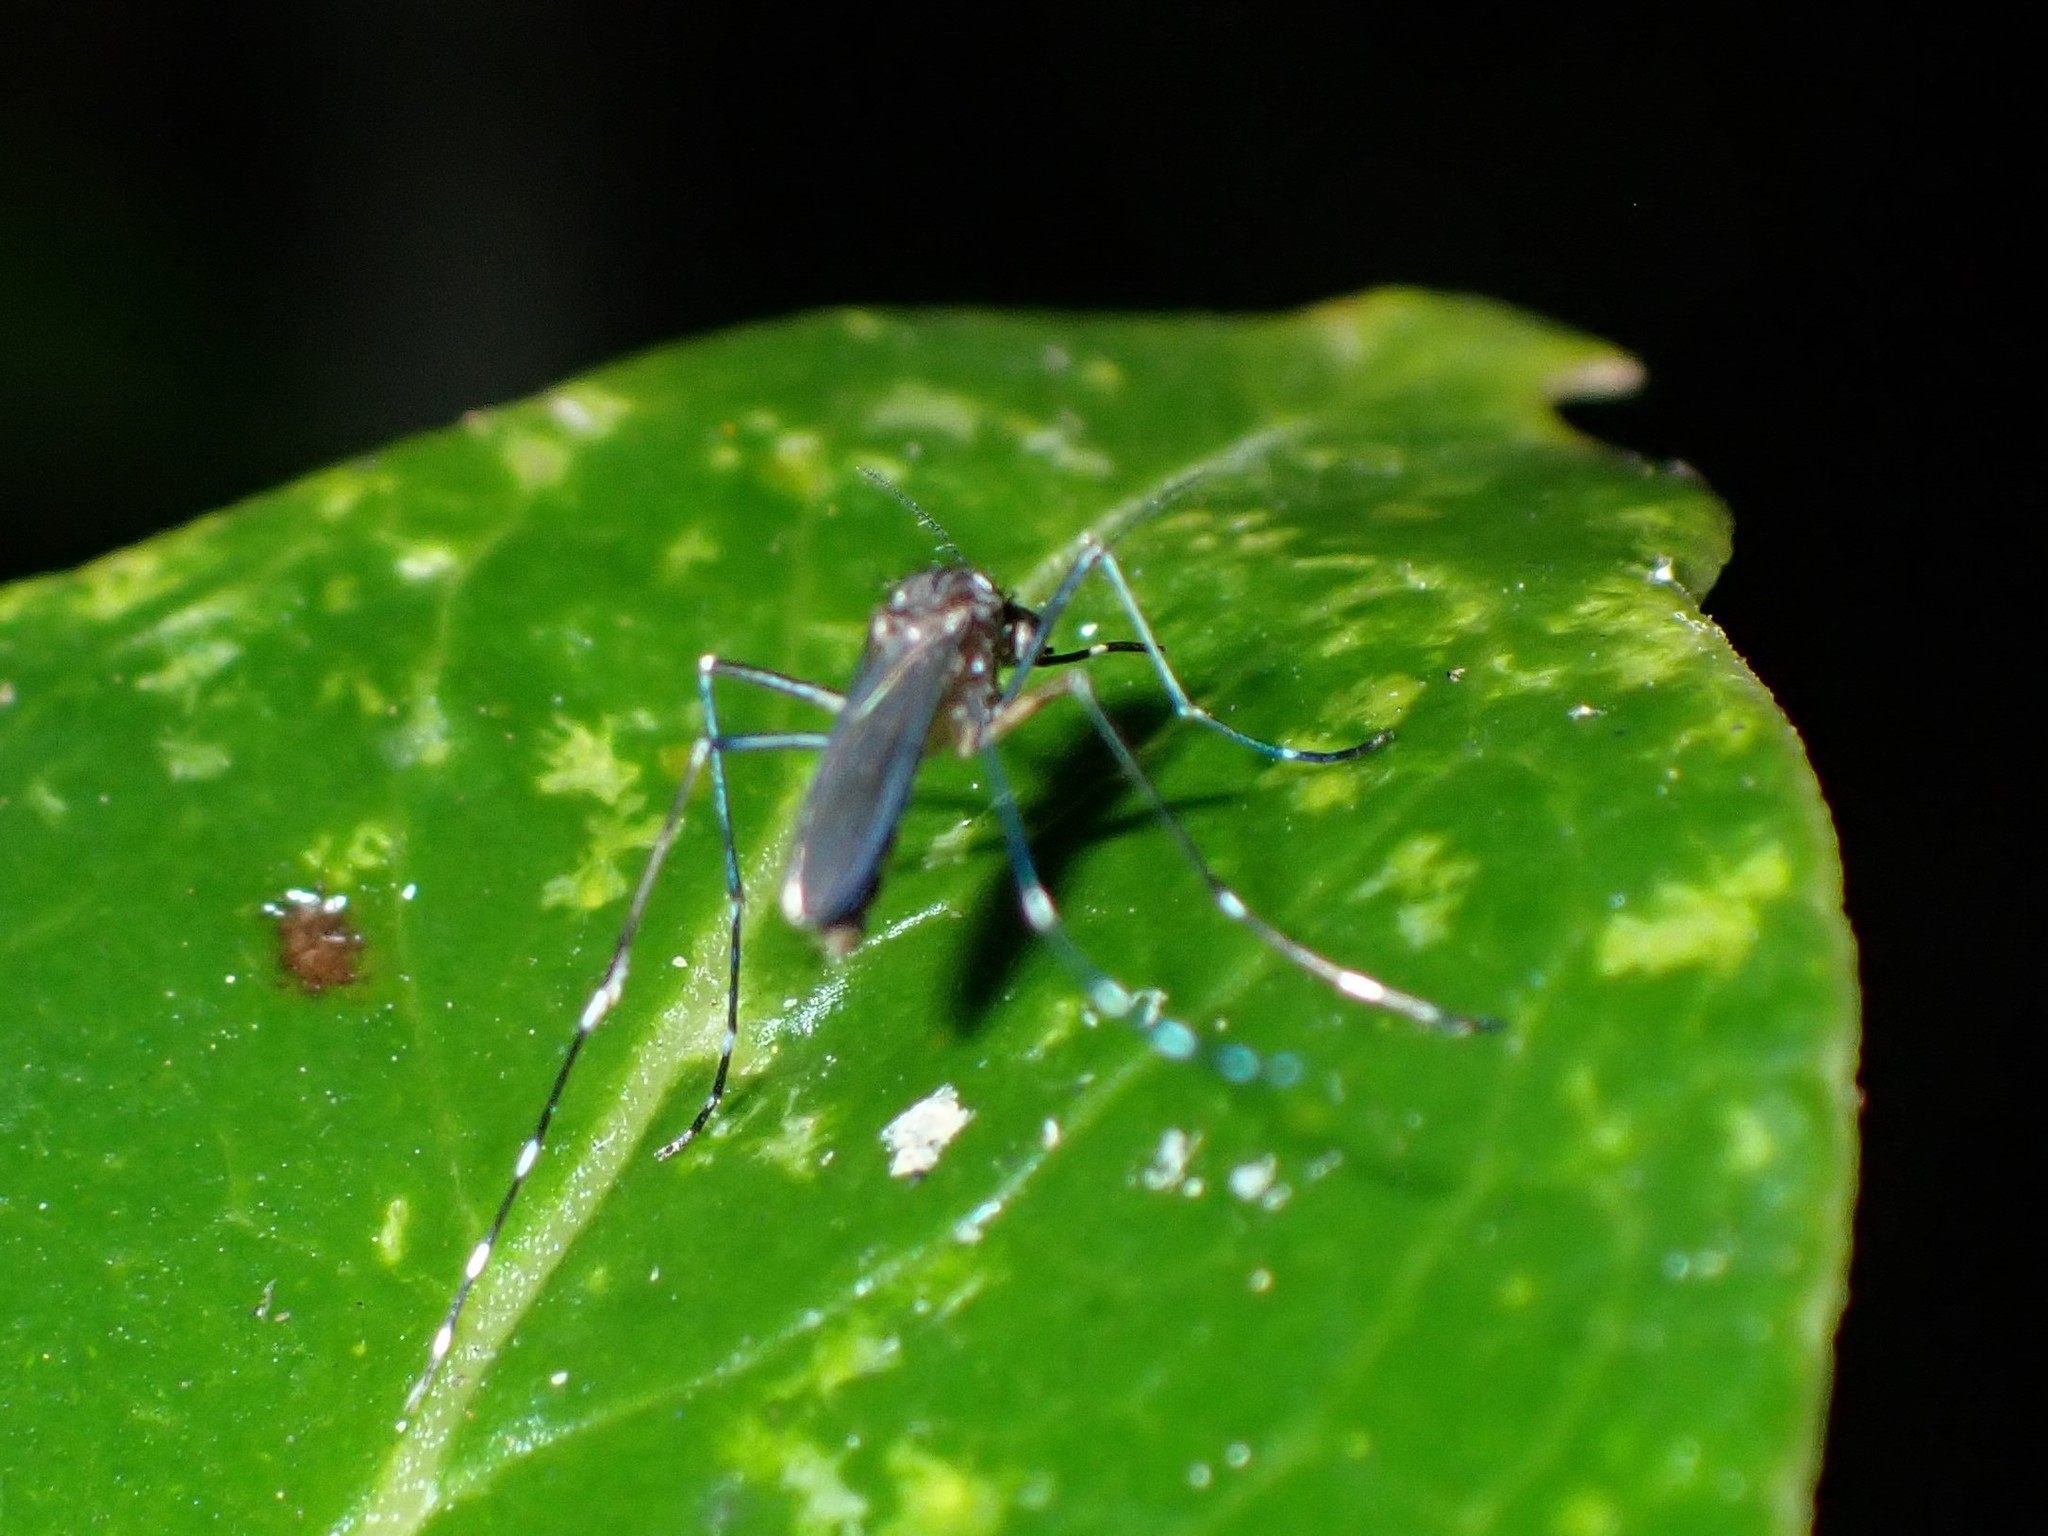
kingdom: Animalia
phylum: Arthropoda
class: Insecta
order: Diptera
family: Culicidae
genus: Aedes
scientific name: Aedes notoscriptus
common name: Australian backyard mosquito
